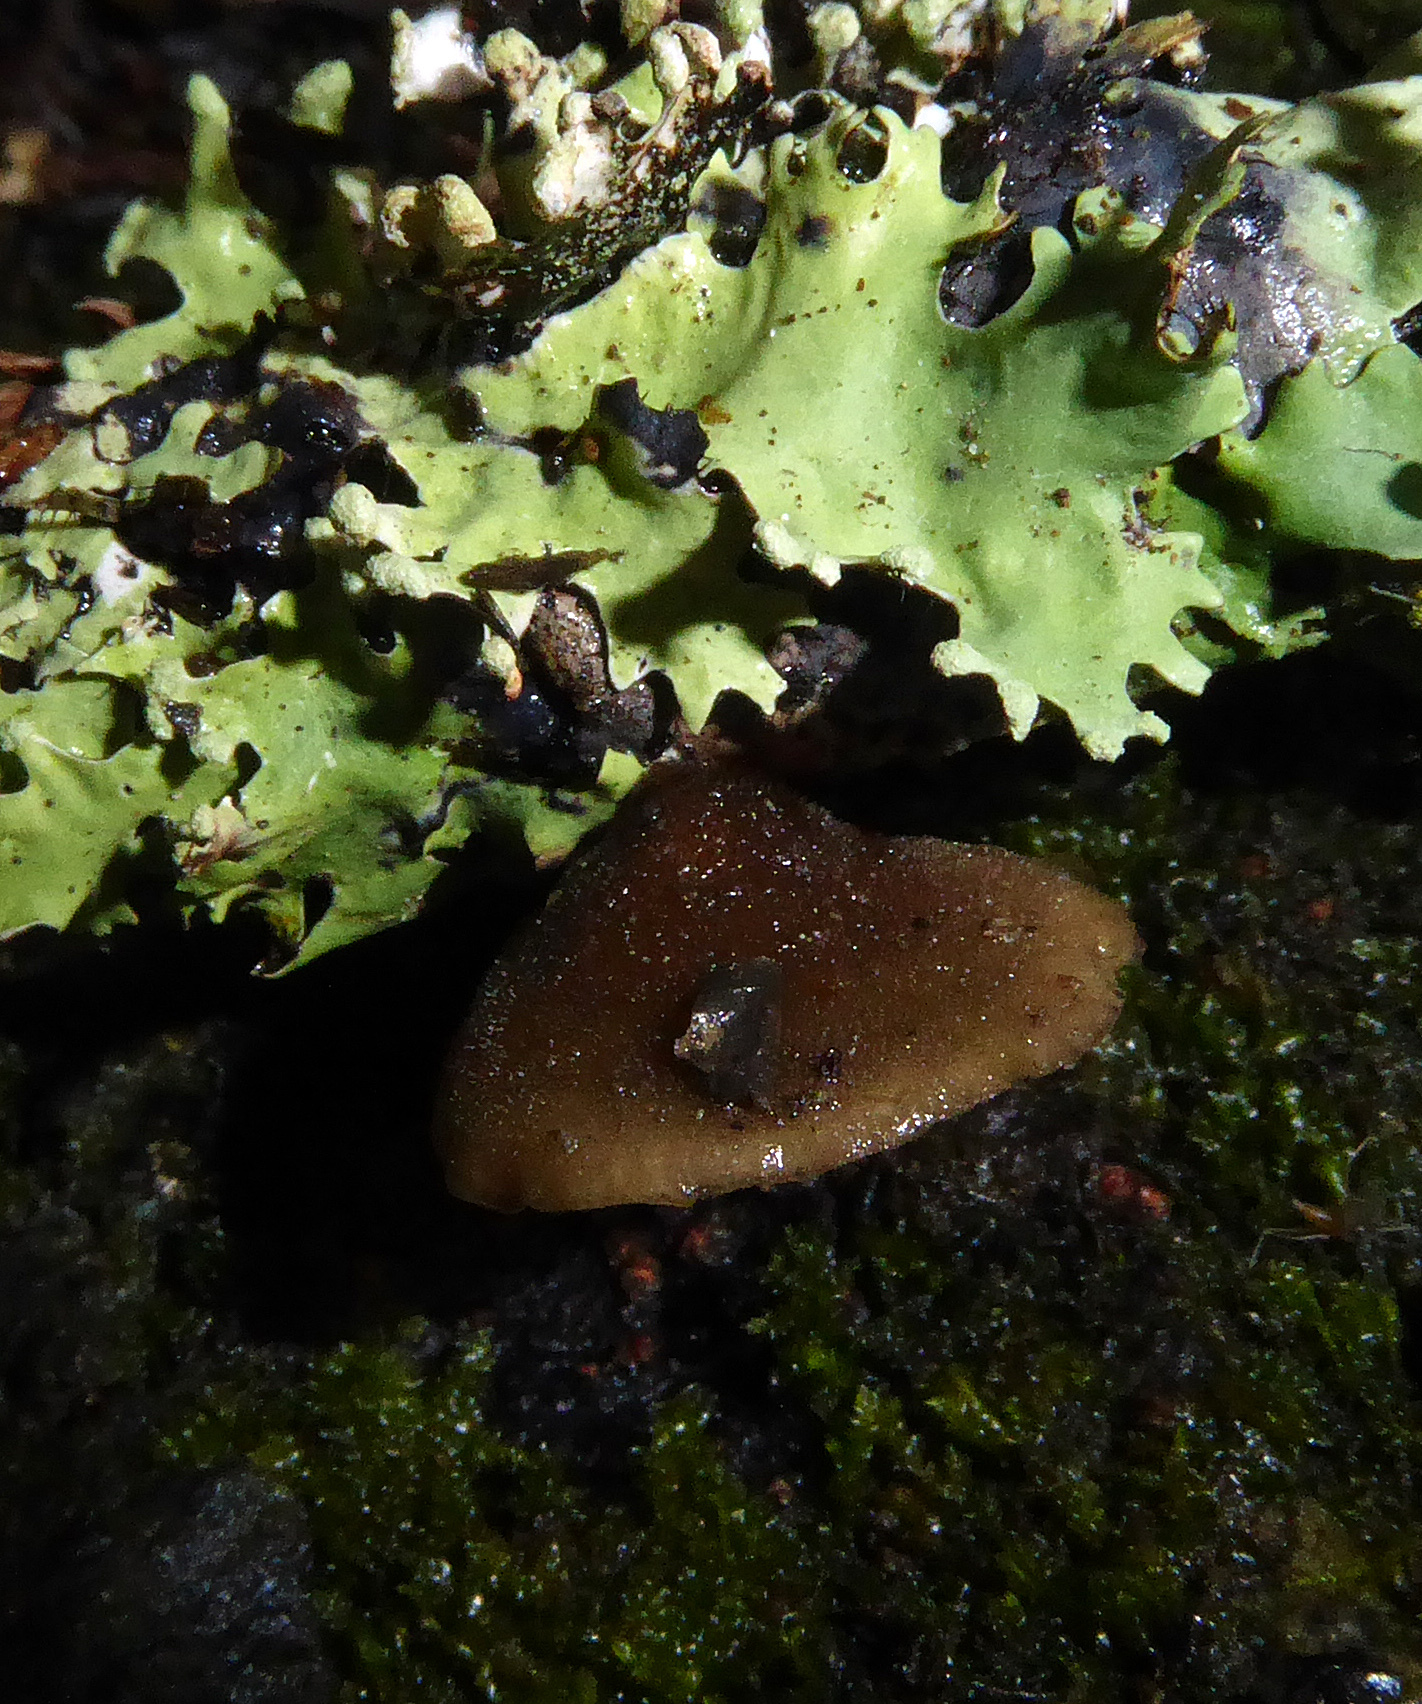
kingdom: Fungi
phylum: Basidiomycota
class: Agaricomycetes
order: Agaricales
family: Pleurotaceae
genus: Hohenbuehelia
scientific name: Hohenbuehelia brunnea
